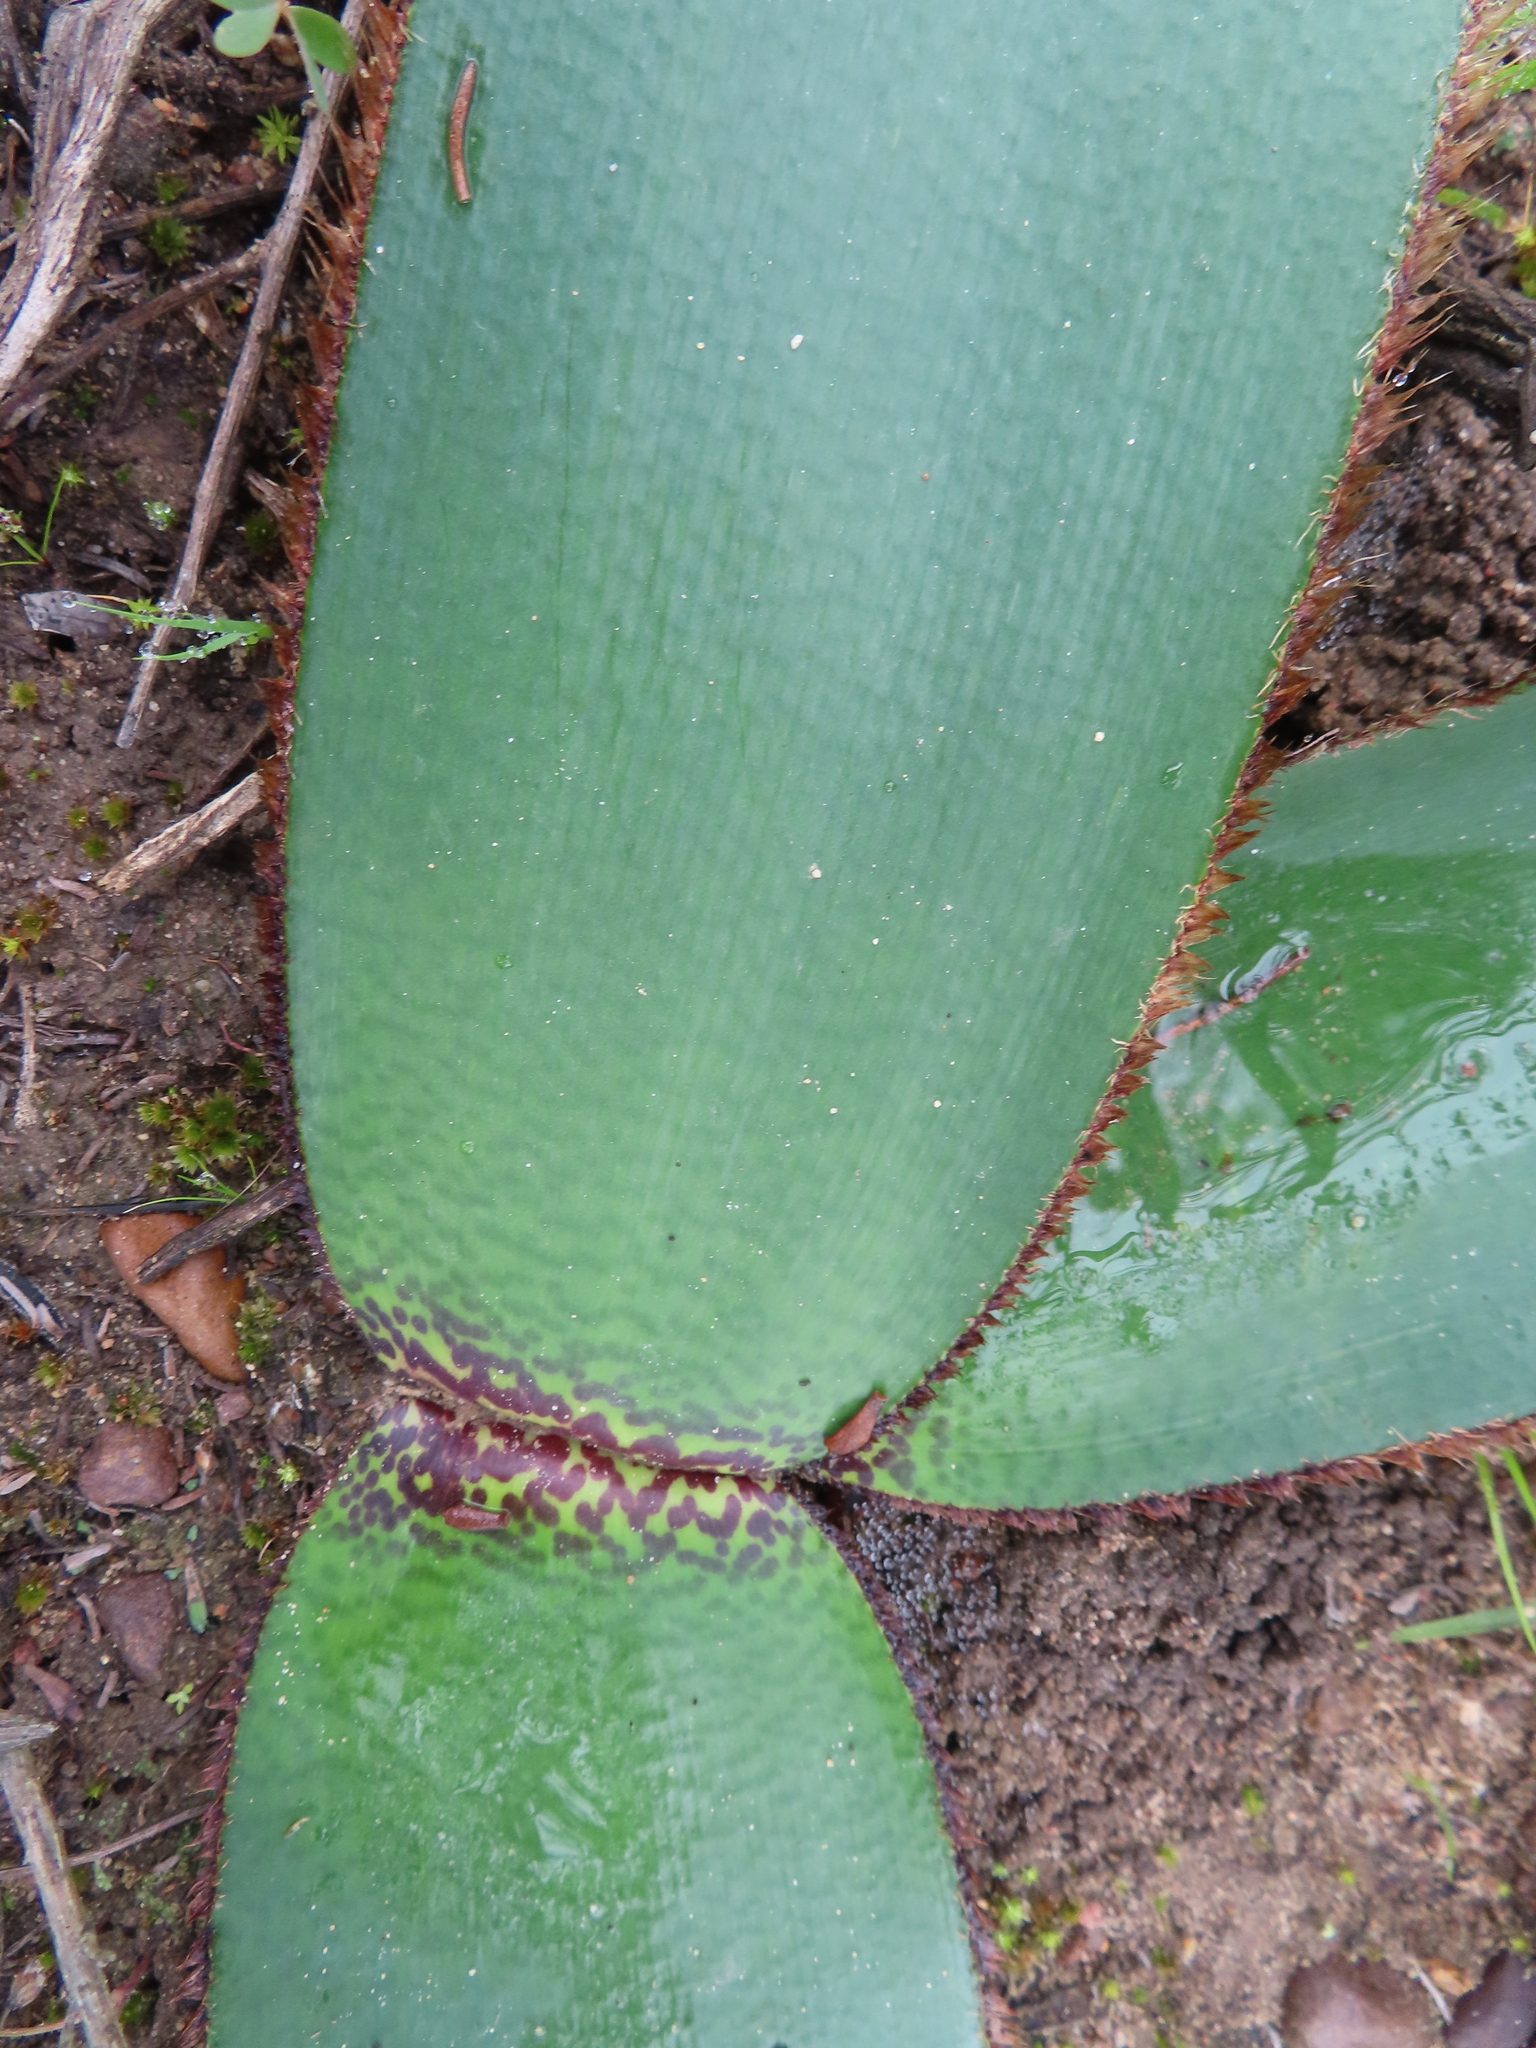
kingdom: Plantae
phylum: Tracheophyta
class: Liliopsida
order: Asparagales
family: Amaryllidaceae
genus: Crossyne
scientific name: Crossyne guttata
